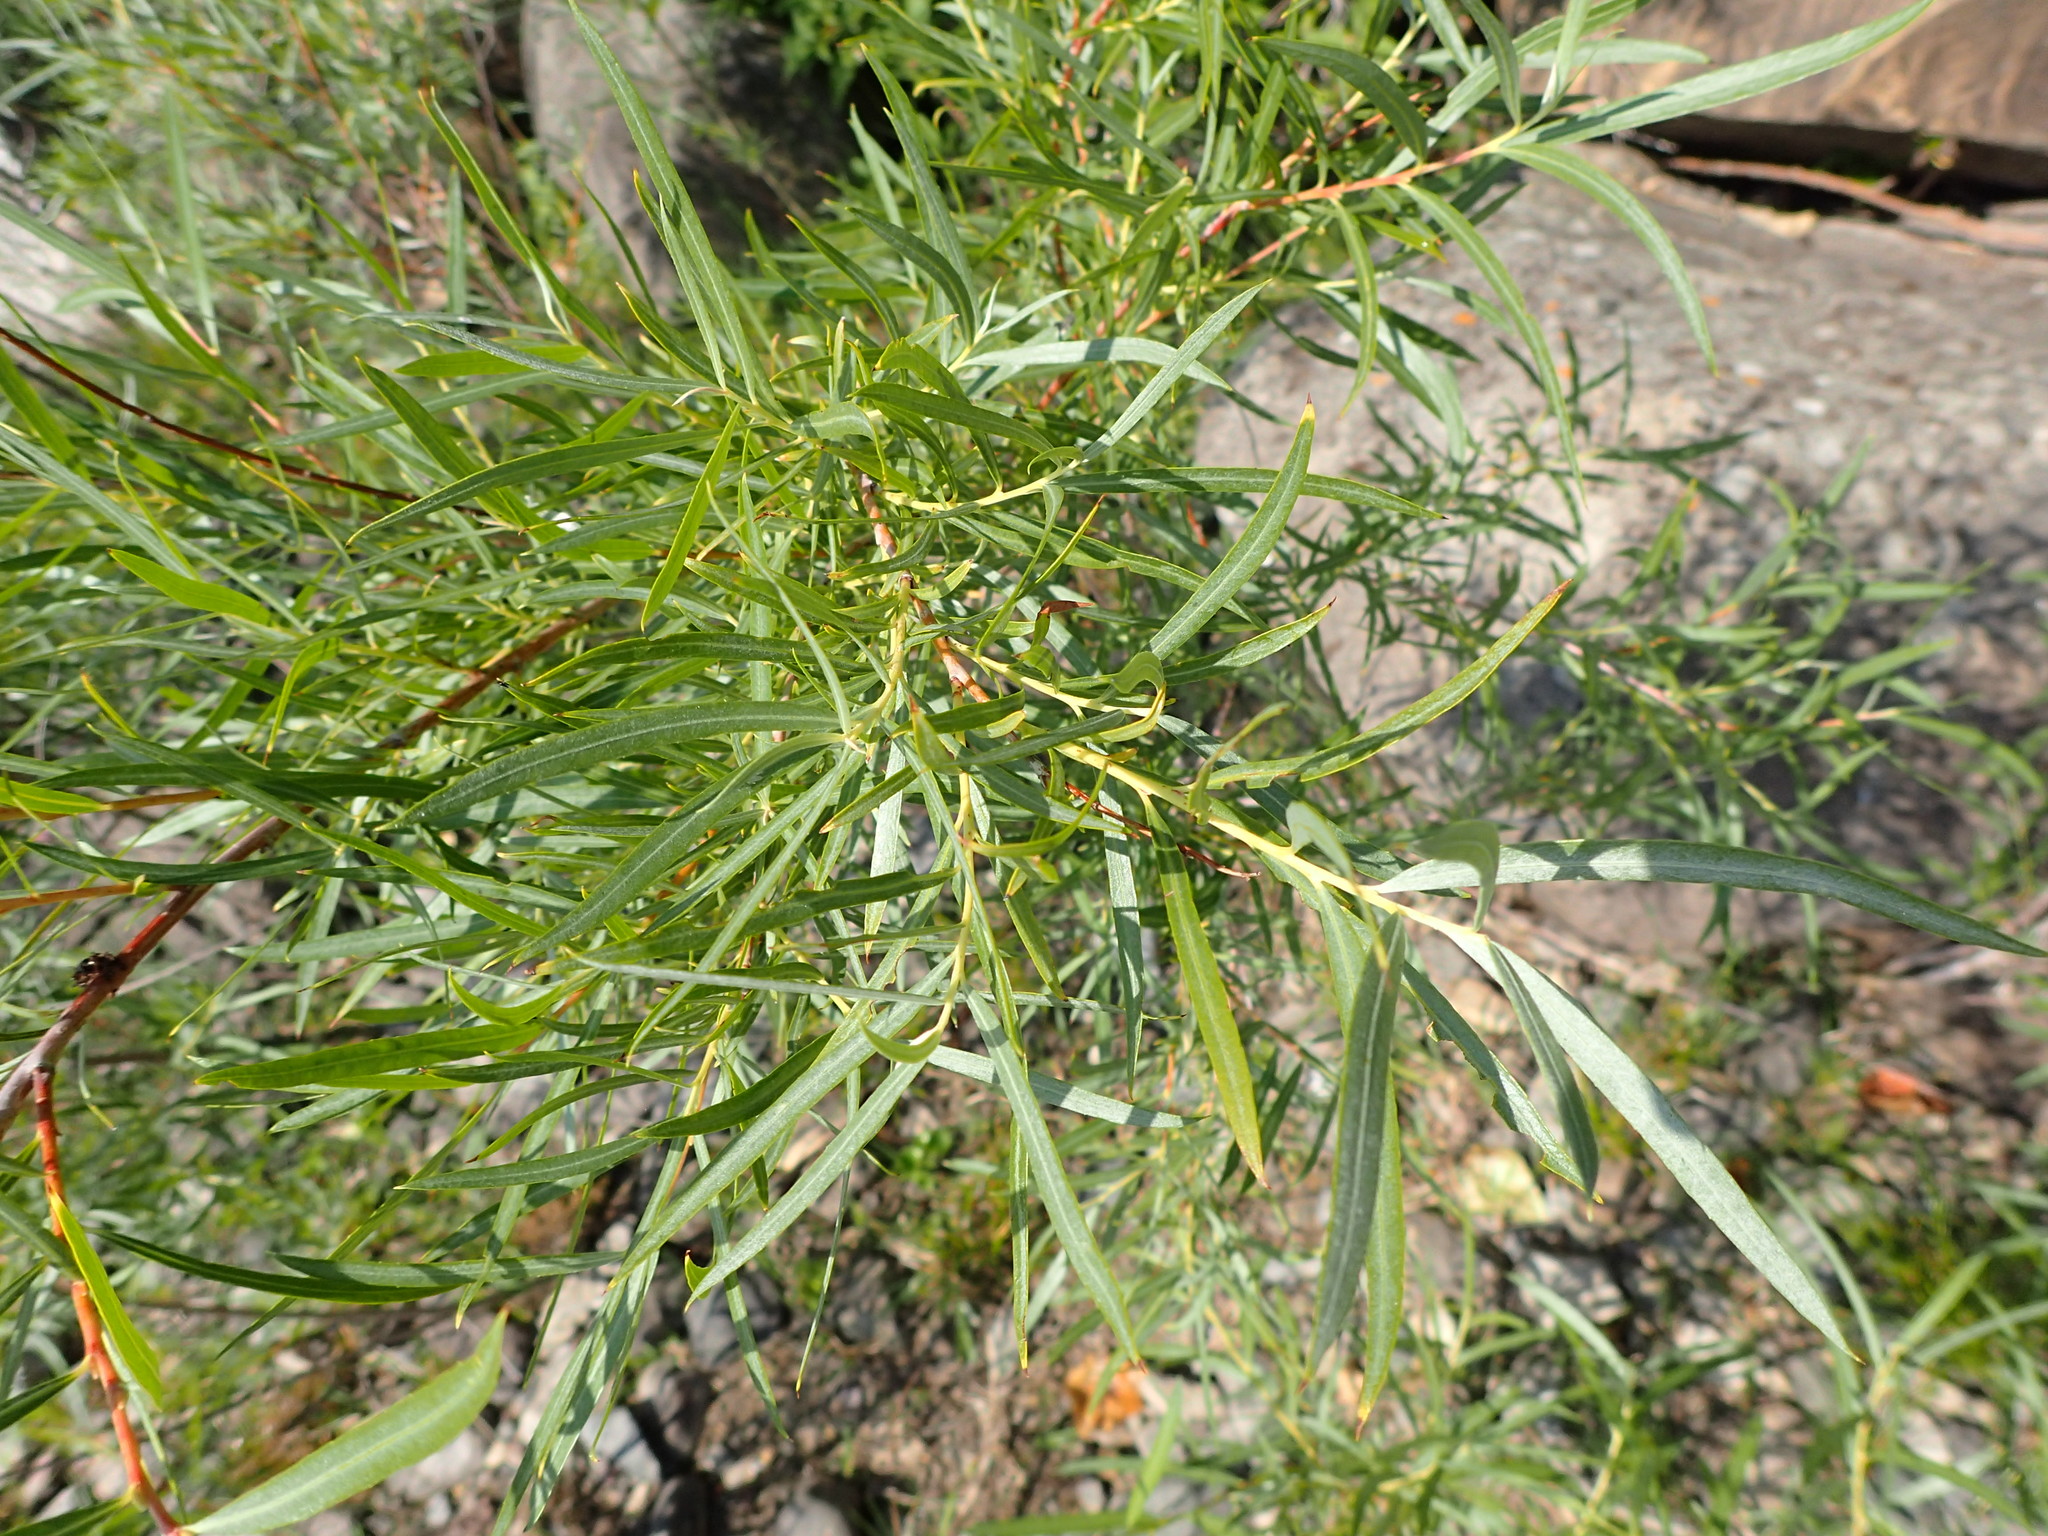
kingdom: Plantae
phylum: Tracheophyta
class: Magnoliopsida
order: Malpighiales
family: Salicaceae
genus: Salix
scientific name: Salix interior
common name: Sandbar willow
